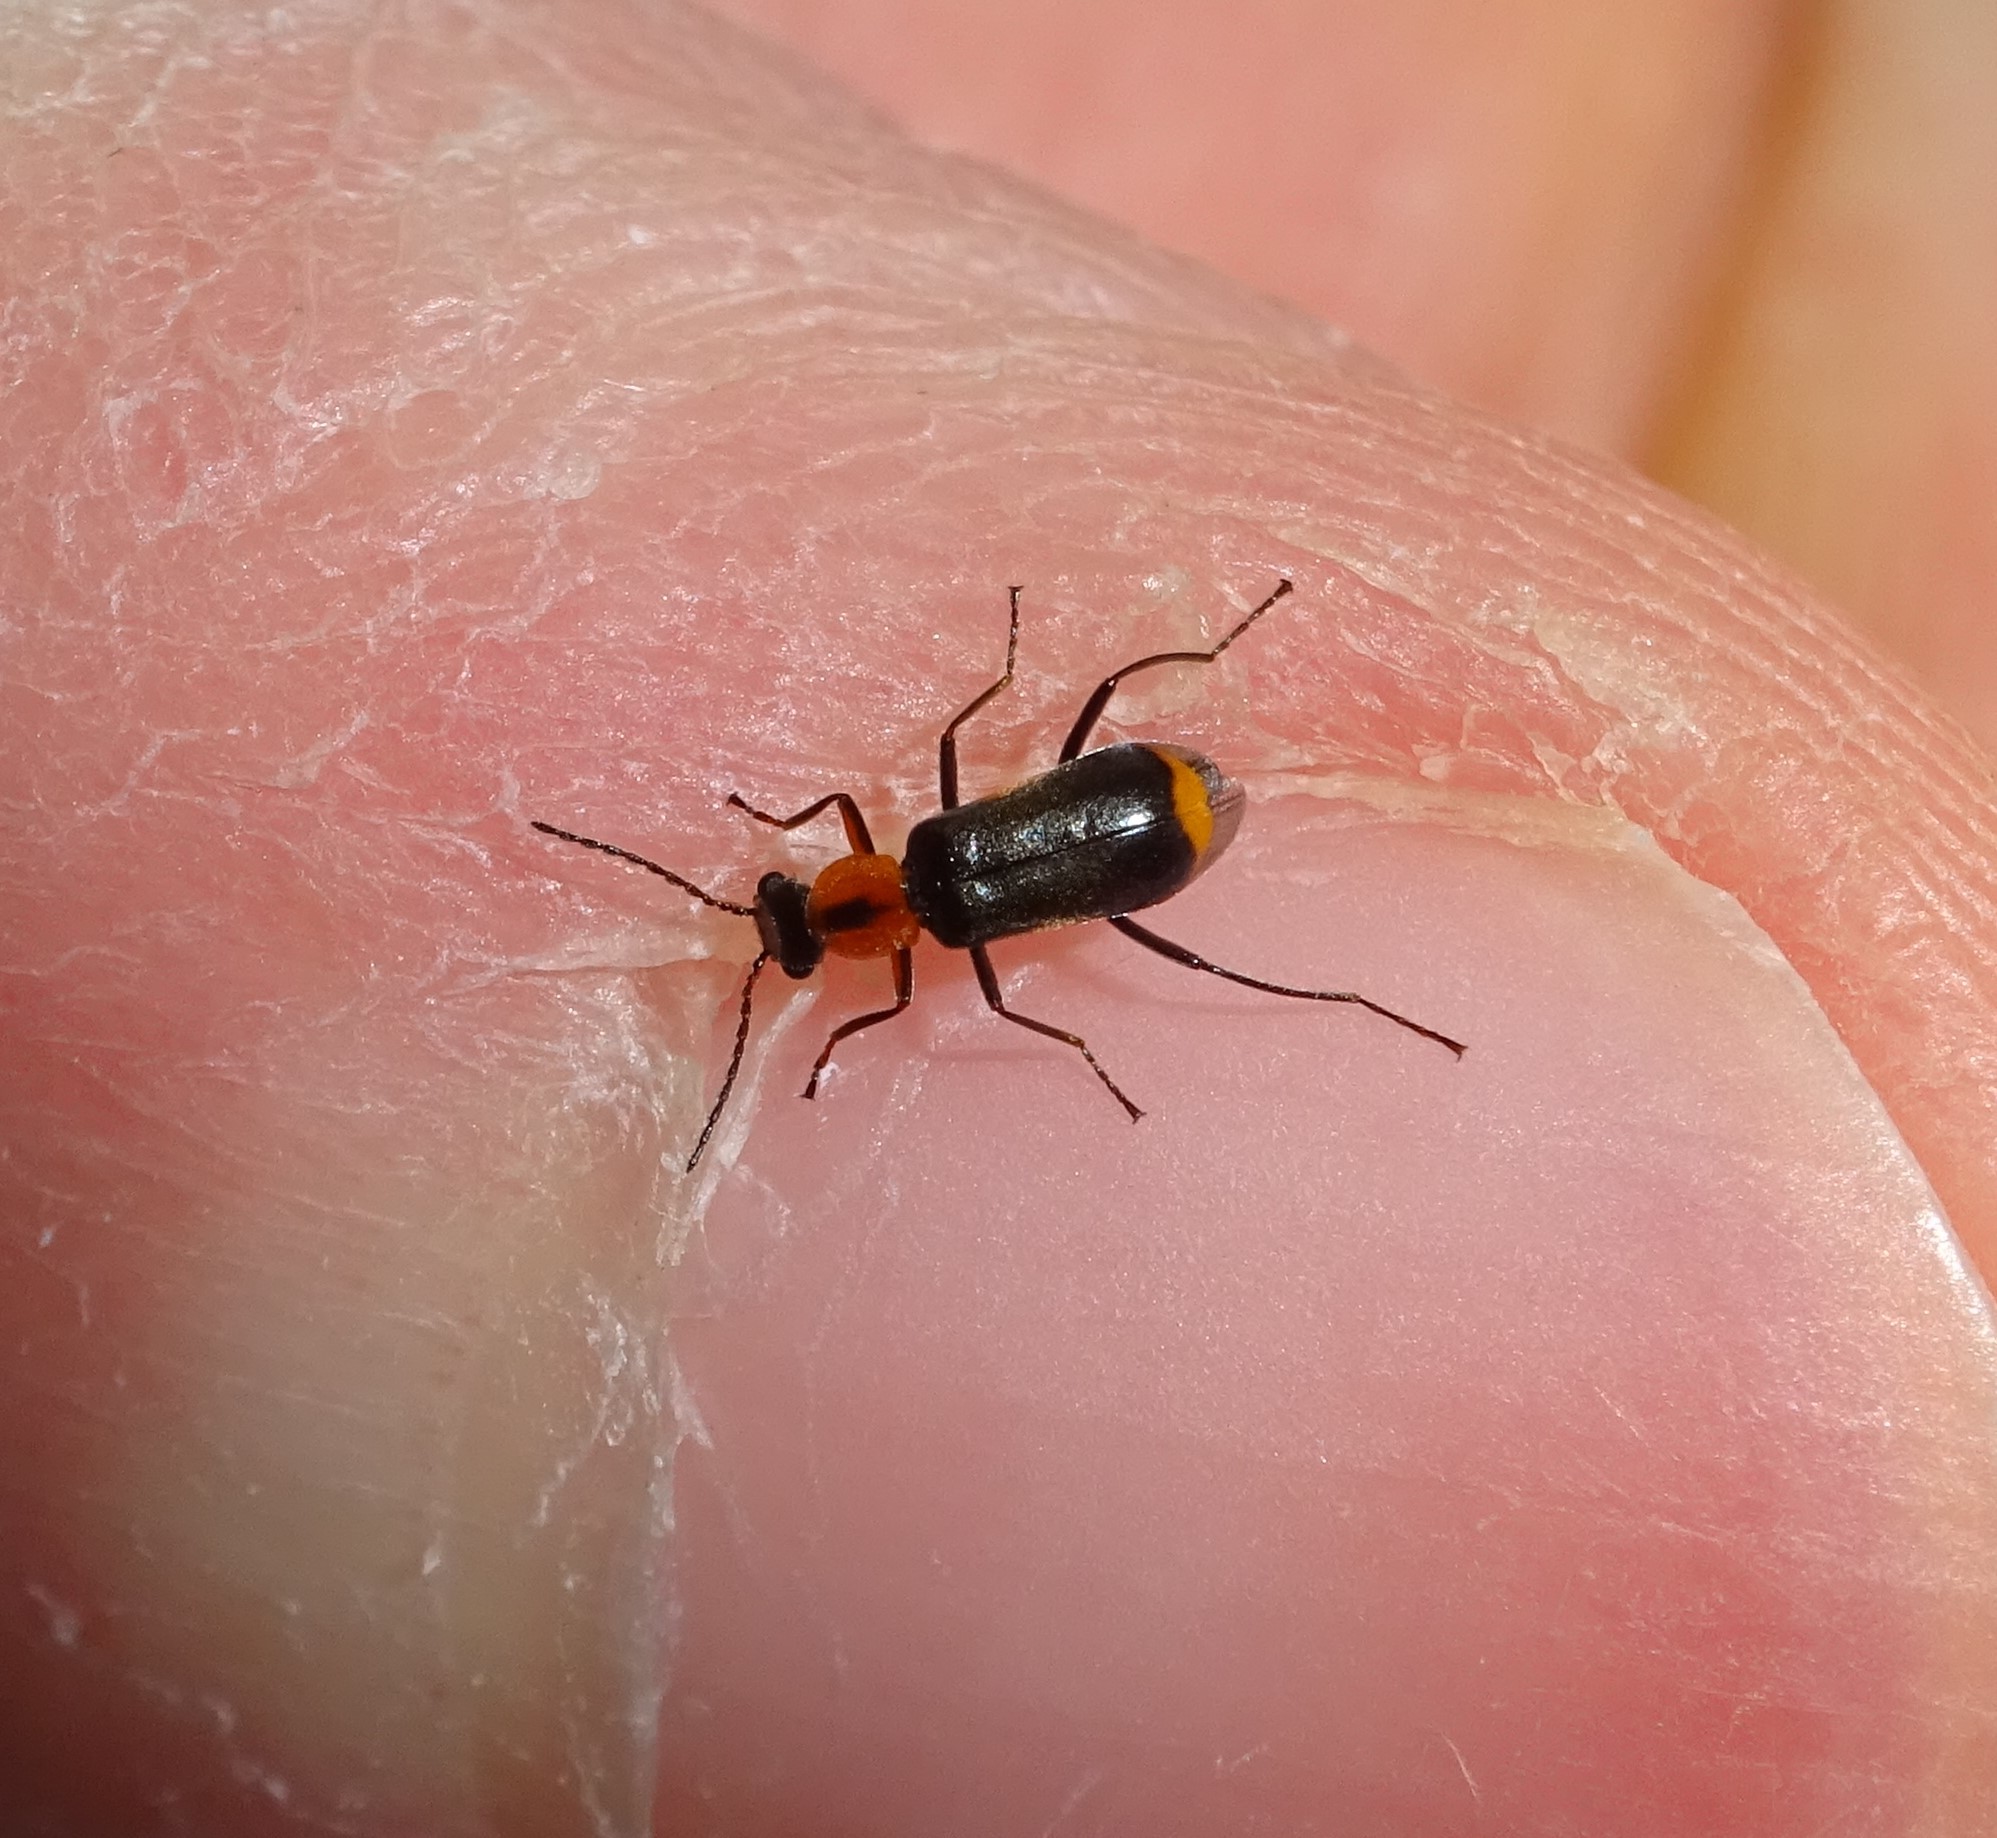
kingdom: Animalia
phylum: Arthropoda
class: Insecta
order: Coleoptera
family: Malachiidae
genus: Attalus
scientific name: Attalus minimus
